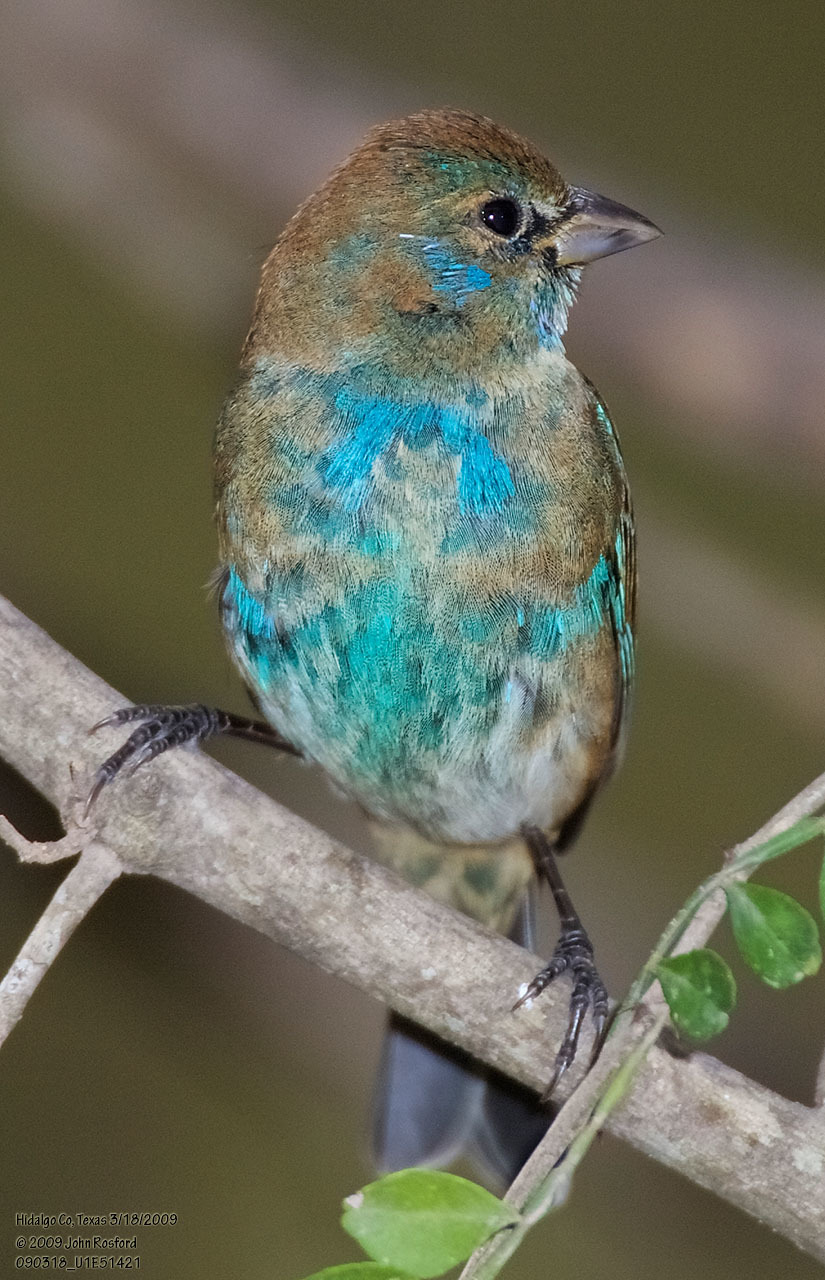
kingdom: Animalia
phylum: Chordata
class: Aves
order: Passeriformes
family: Cardinalidae
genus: Passerina
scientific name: Passerina cyanea
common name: Indigo bunting
